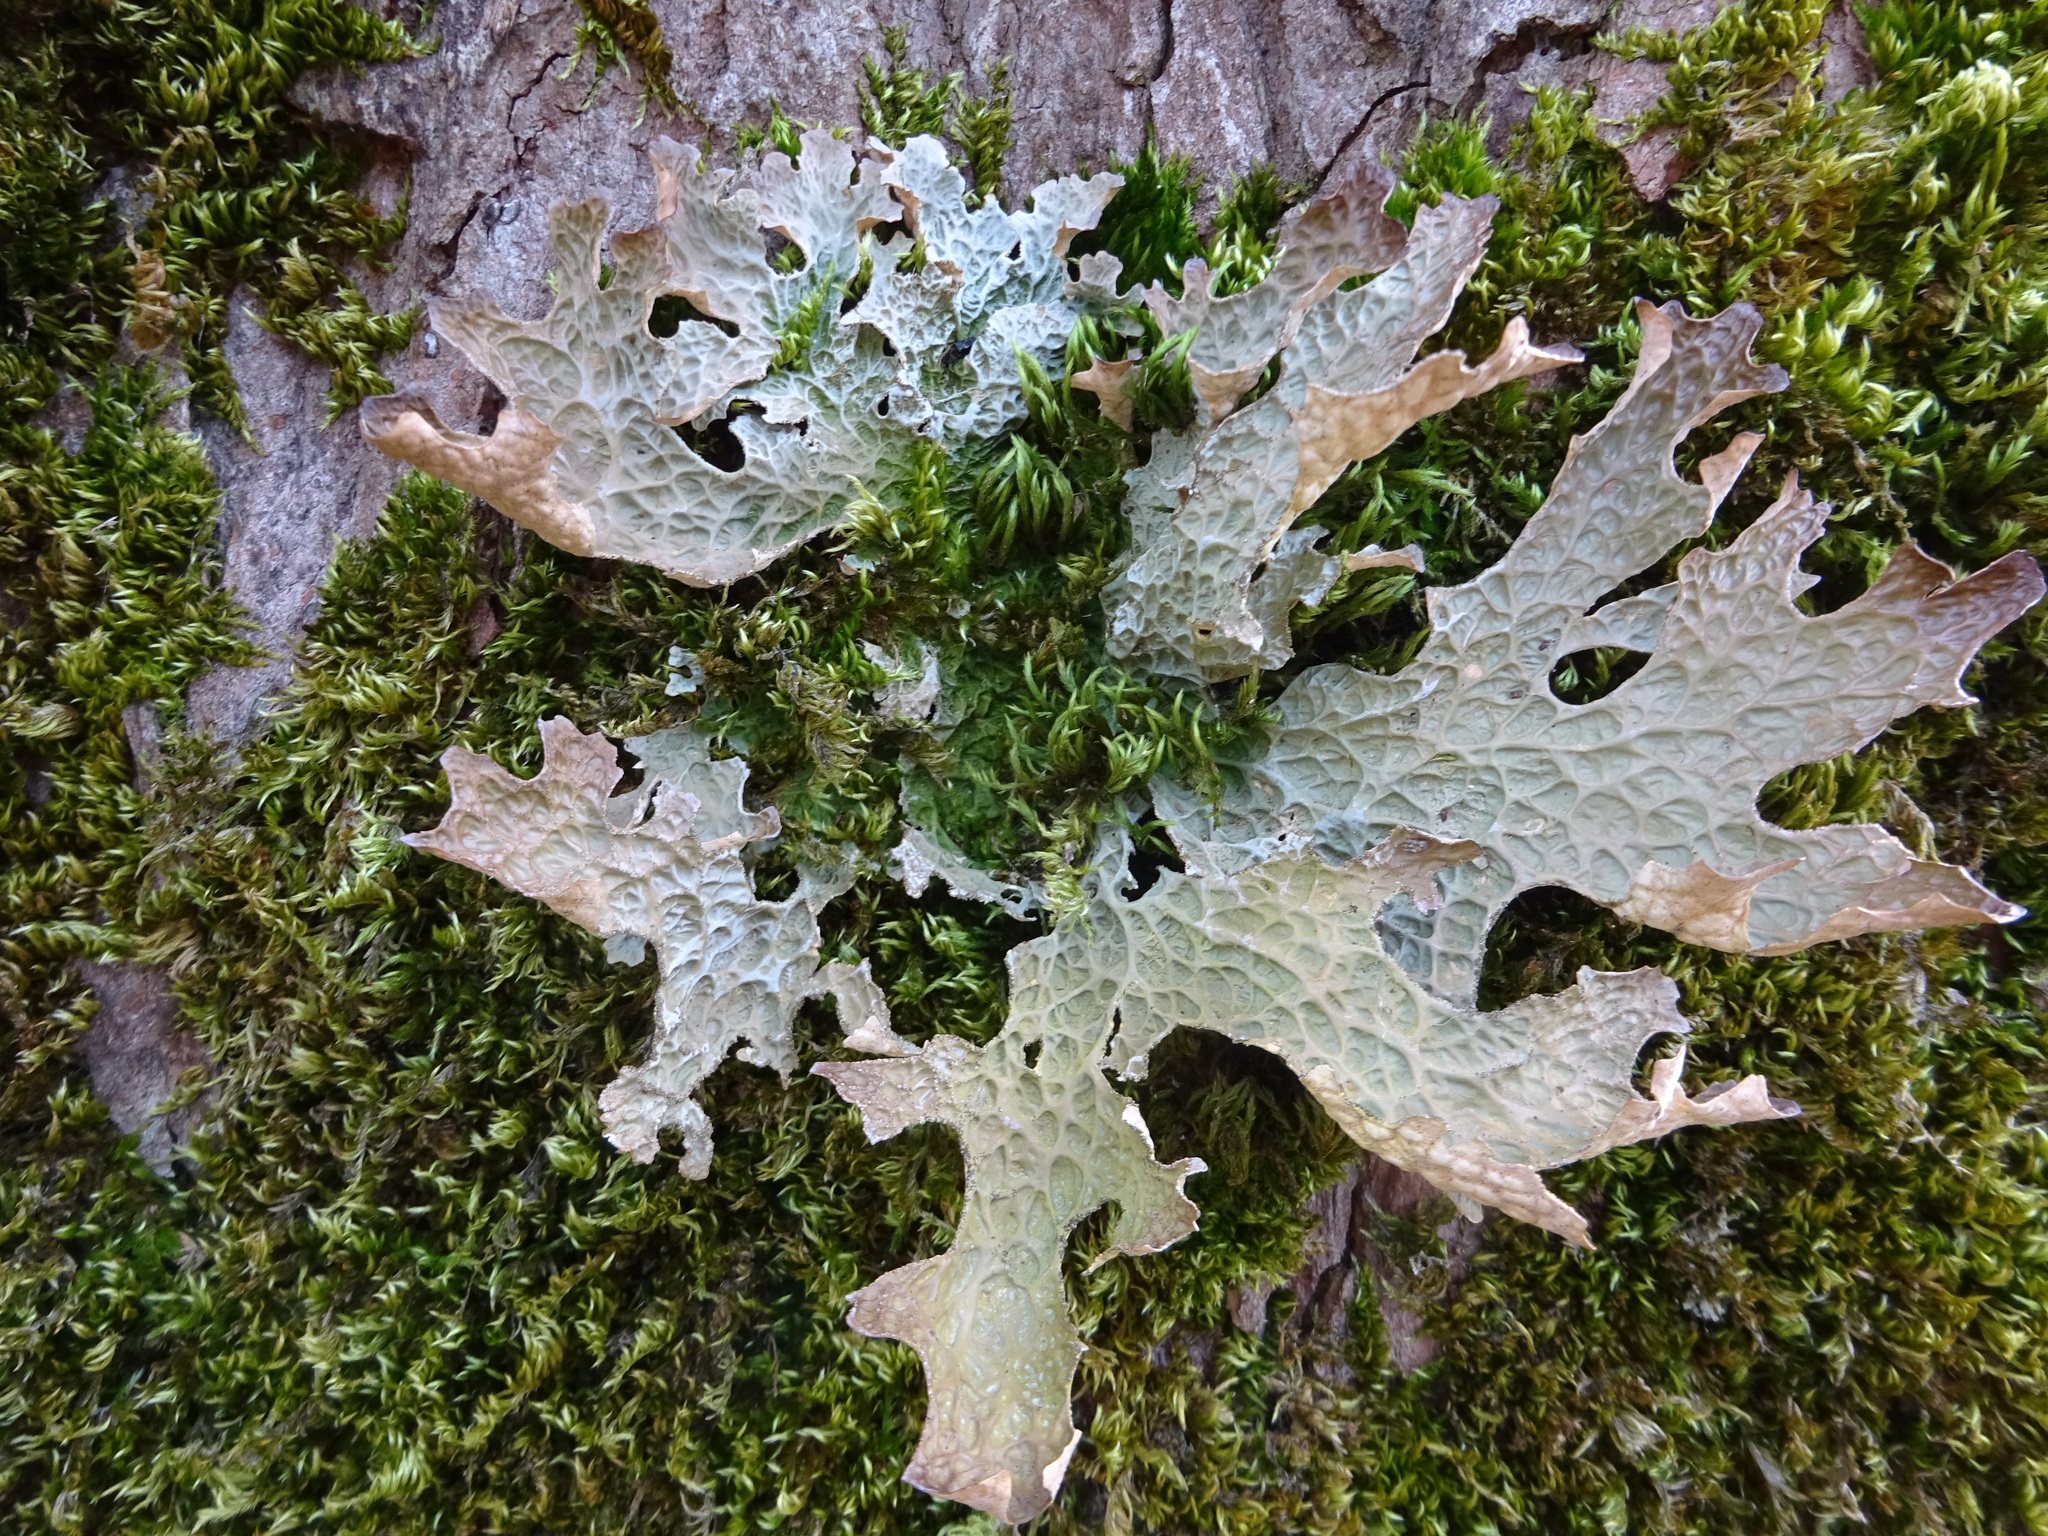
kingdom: Fungi
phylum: Ascomycota
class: Lecanoromycetes
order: Peltigerales
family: Lobariaceae
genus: Lobaria
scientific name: Lobaria pulmonaria
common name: Lungwort
